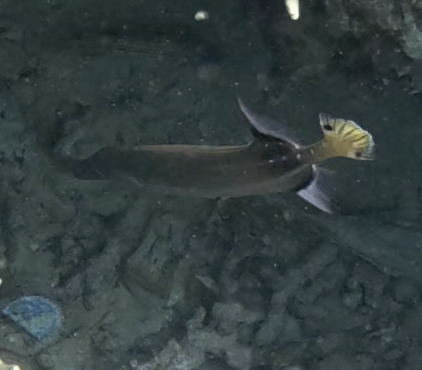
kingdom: Animalia
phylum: Chordata
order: Syngnathiformes
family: Aulostomidae
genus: Aulostomus
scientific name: Aulostomus chinensis
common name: Chinese trumpetfish
